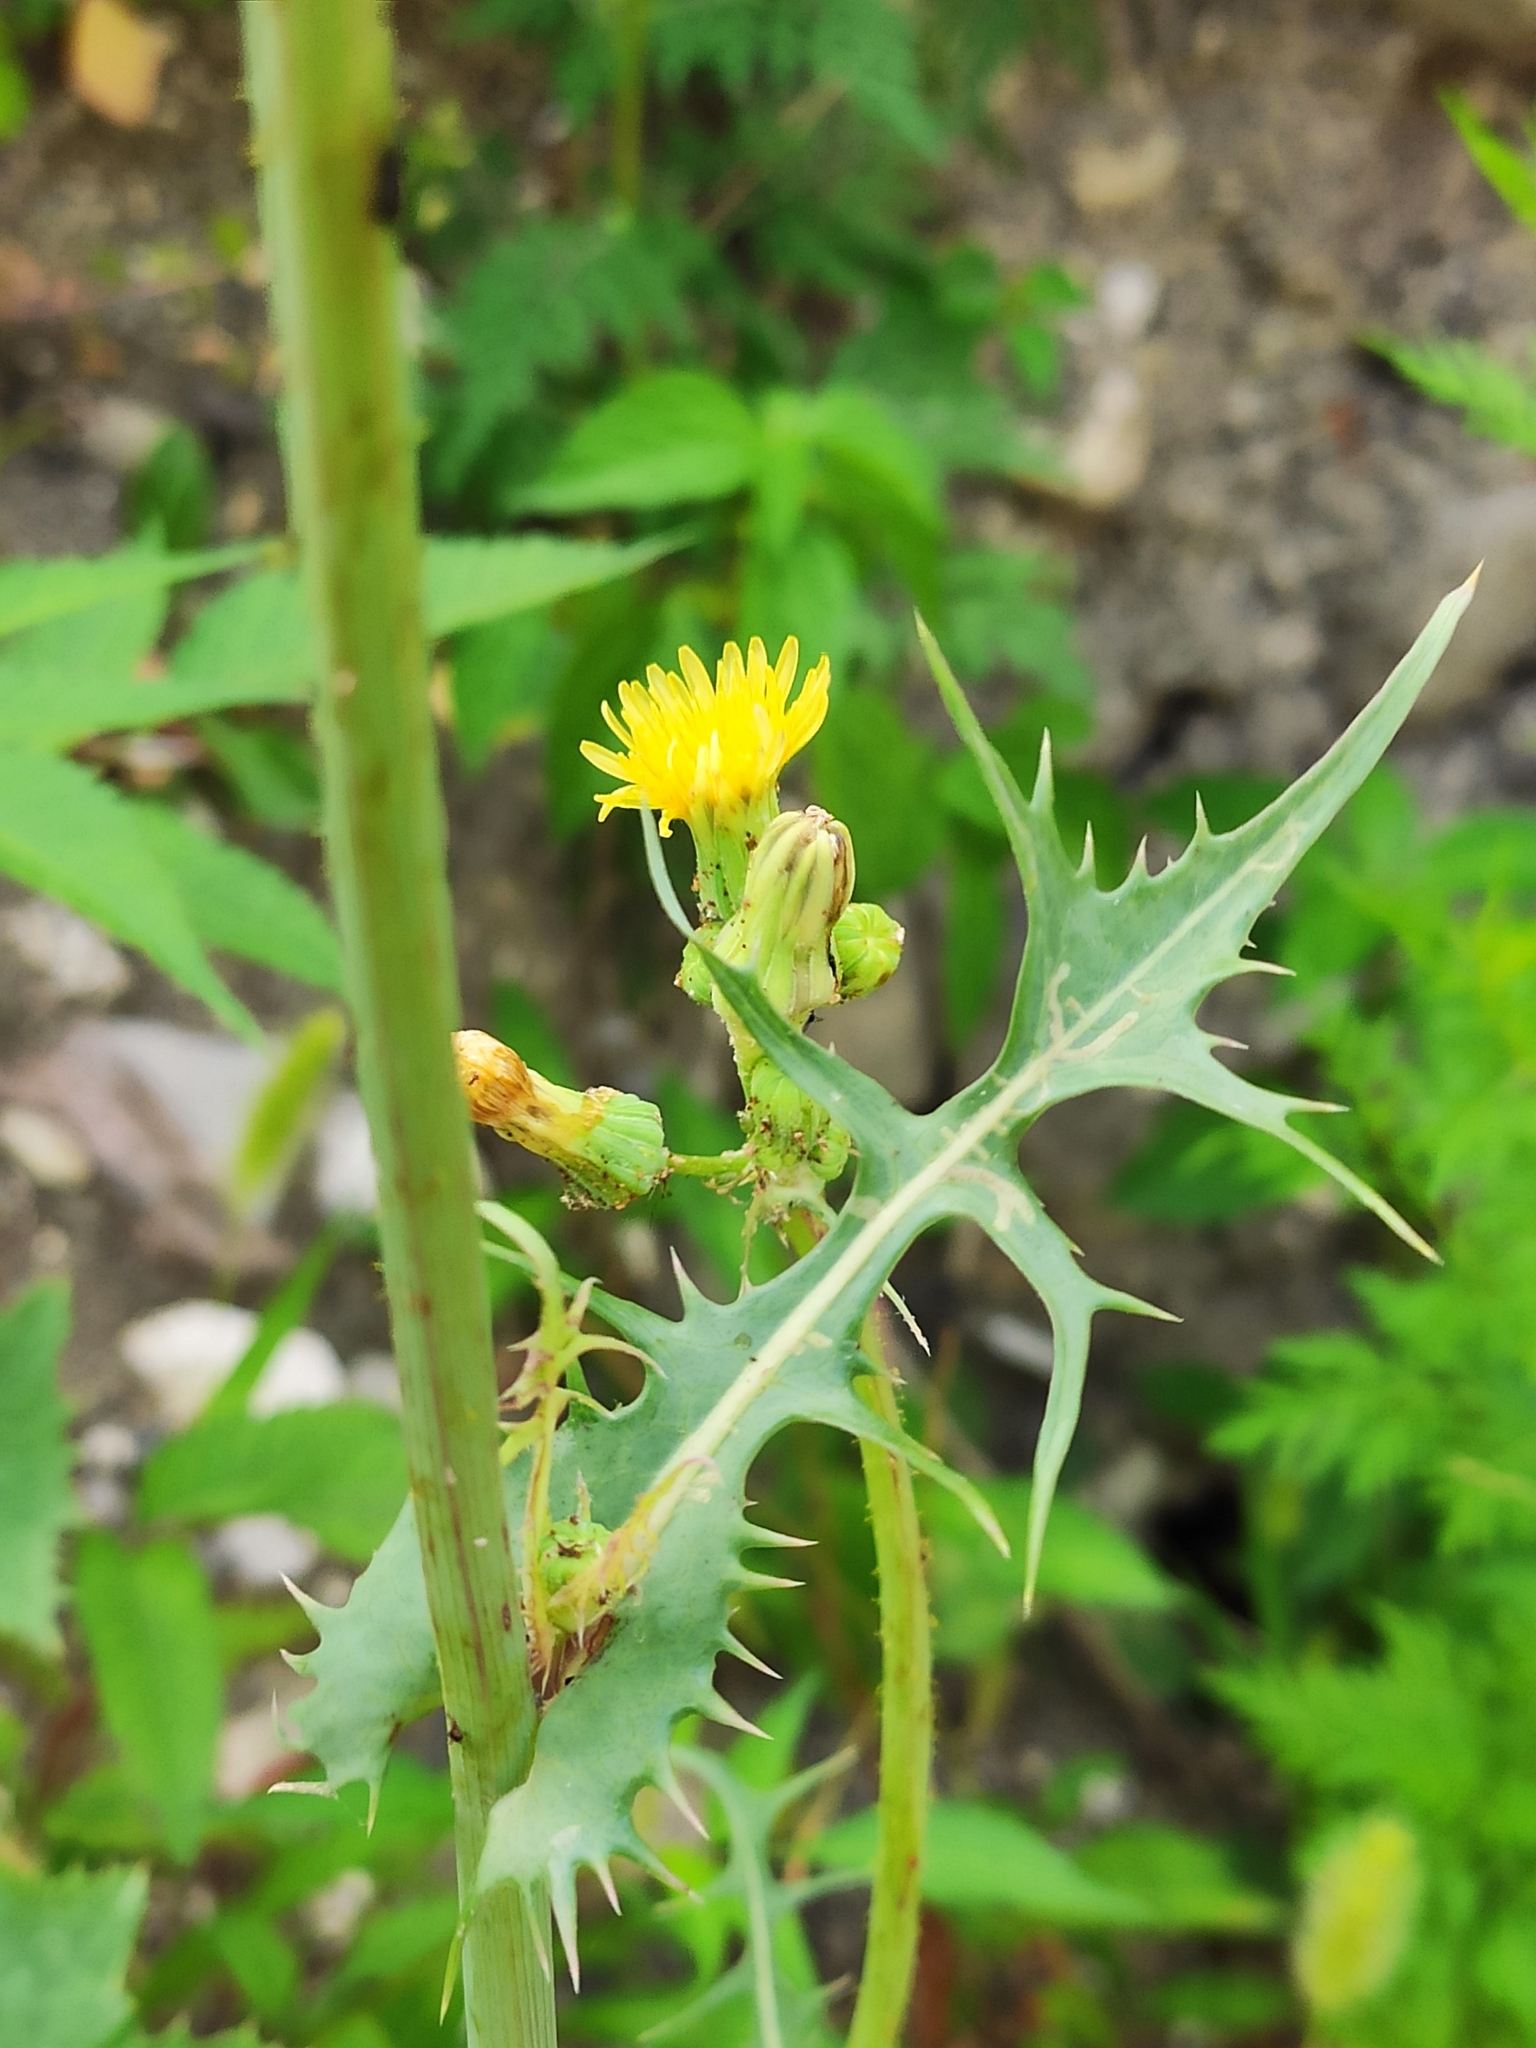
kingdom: Plantae
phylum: Tracheophyta
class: Magnoliopsida
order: Asterales
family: Asteraceae
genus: Sonchus
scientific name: Sonchus oleraceus
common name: Common sowthistle
